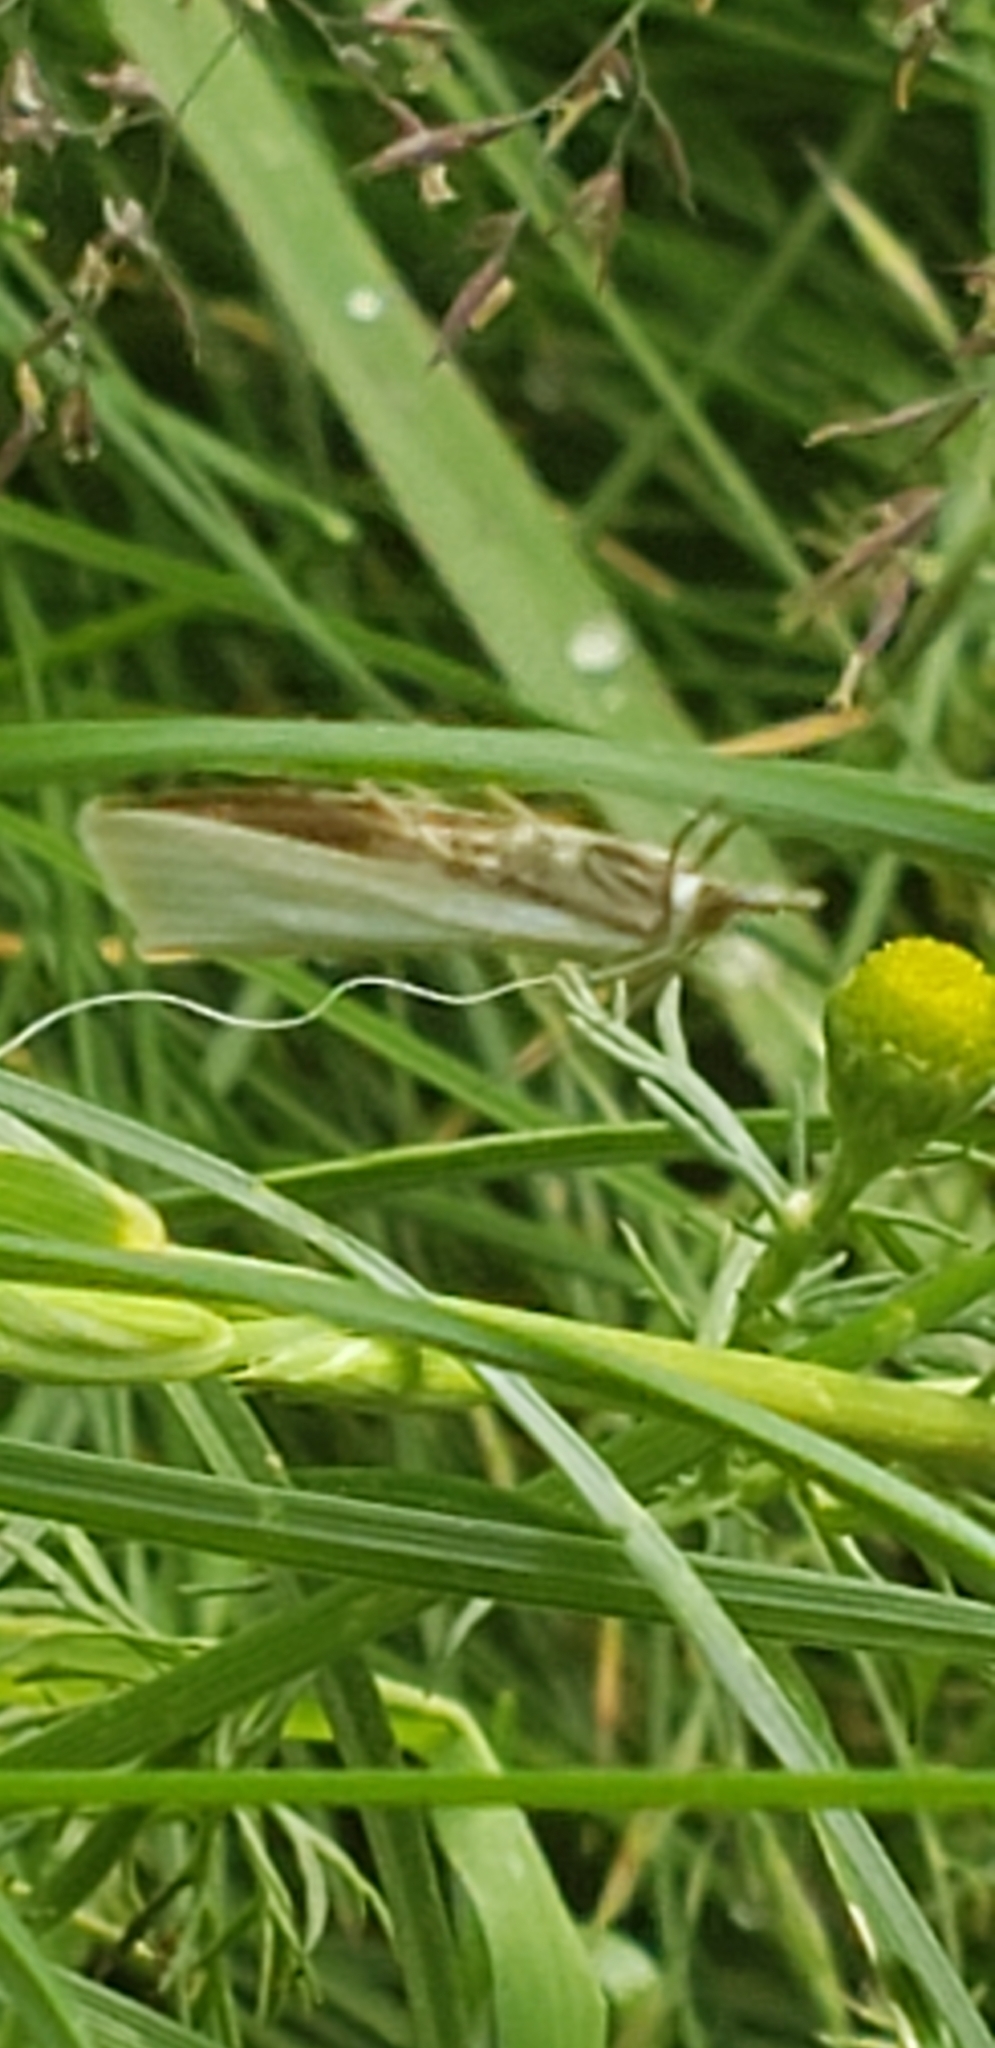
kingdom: Animalia
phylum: Arthropoda
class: Insecta
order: Lepidoptera
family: Crambidae
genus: Crambus
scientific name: Crambus perlellus
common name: Yellow satin veneer
